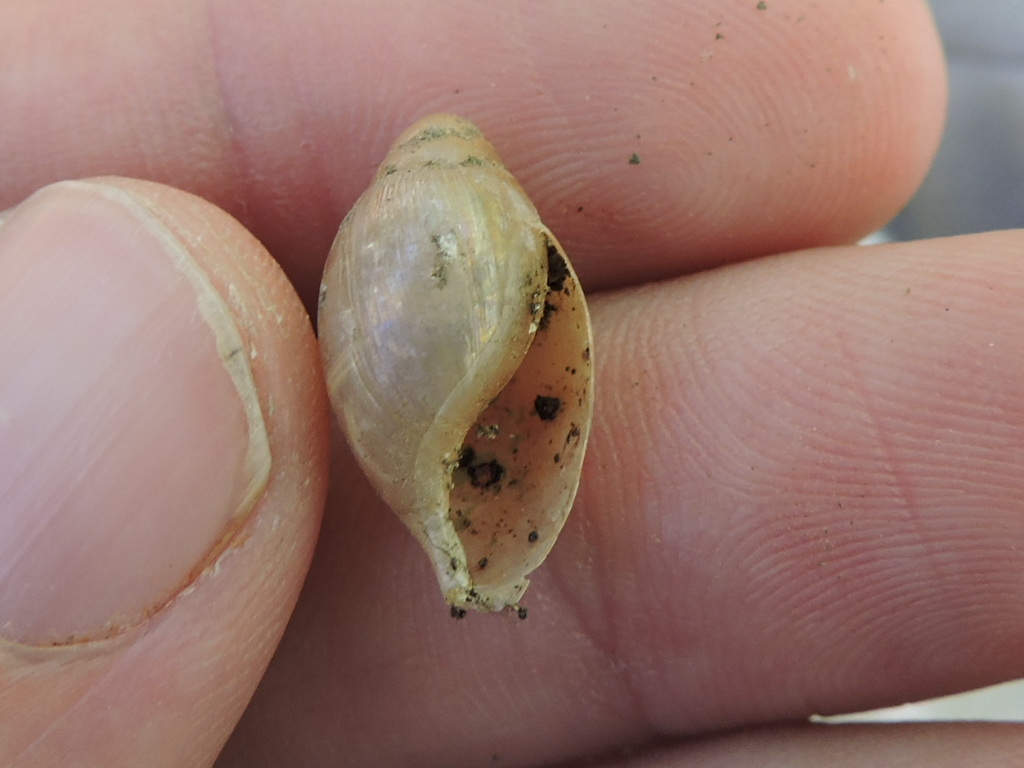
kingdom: Animalia
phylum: Mollusca
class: Gastropoda
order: Stylommatophora
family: Spiraxidae
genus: Euglandina
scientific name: Euglandina singleyana
